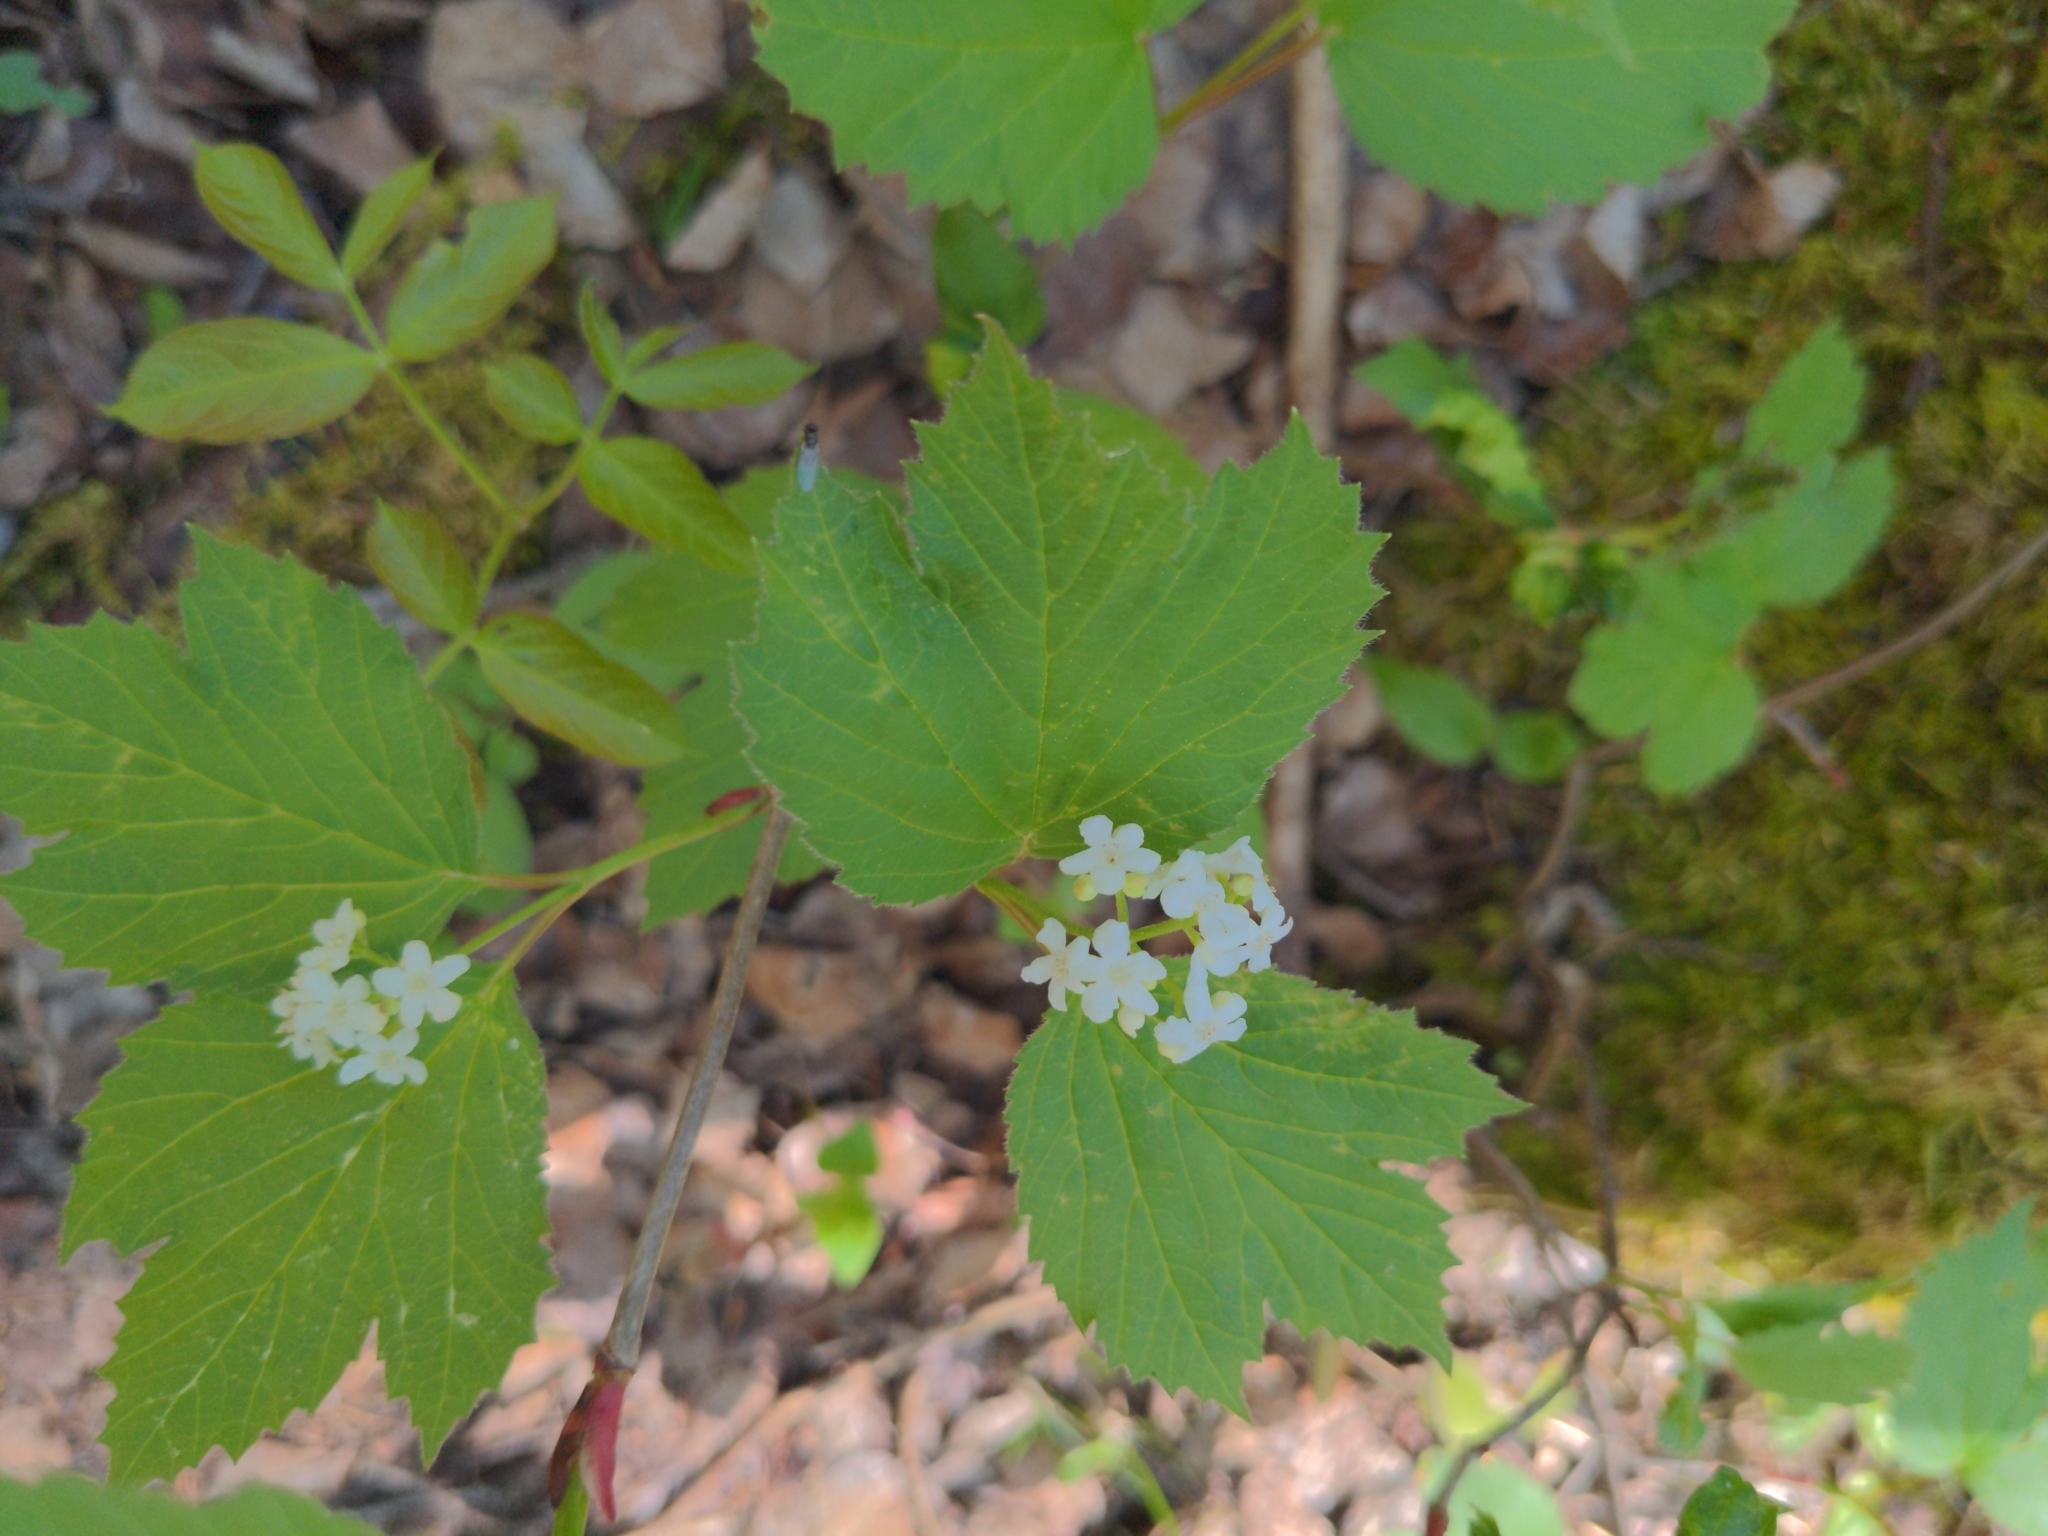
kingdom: Plantae
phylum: Tracheophyta
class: Magnoliopsida
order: Dipsacales
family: Viburnaceae
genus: Viburnum
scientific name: Viburnum edule
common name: Mooseberry
